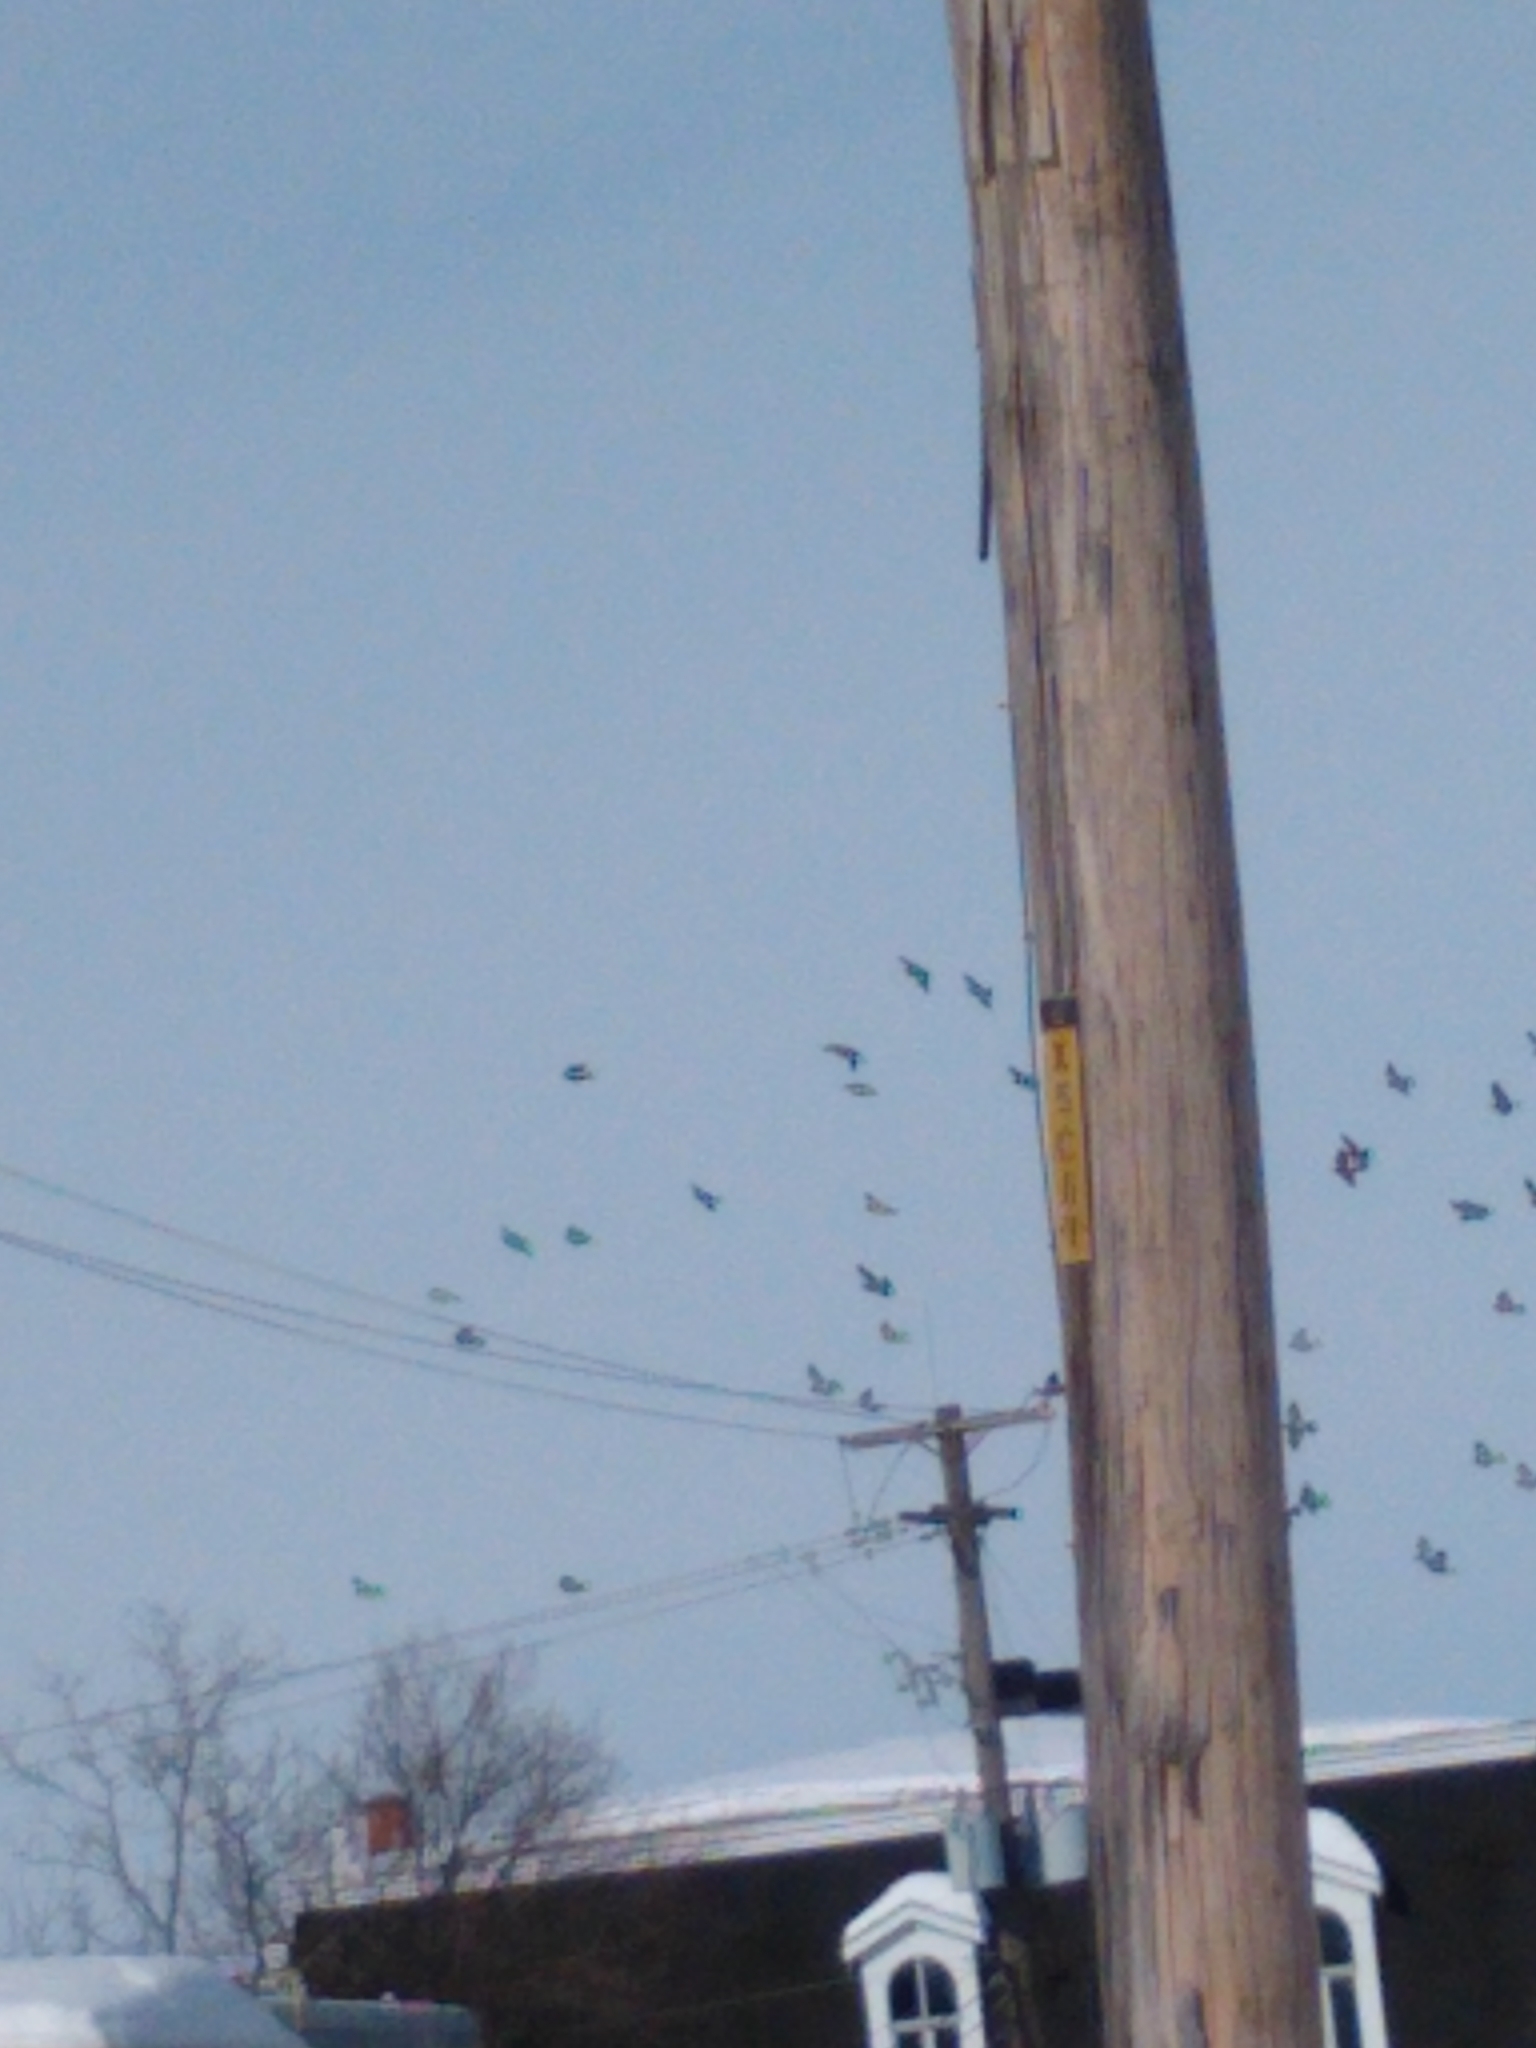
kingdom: Animalia
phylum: Chordata
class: Aves
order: Columbiformes
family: Columbidae
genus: Columba
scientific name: Columba livia
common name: Rock pigeon
